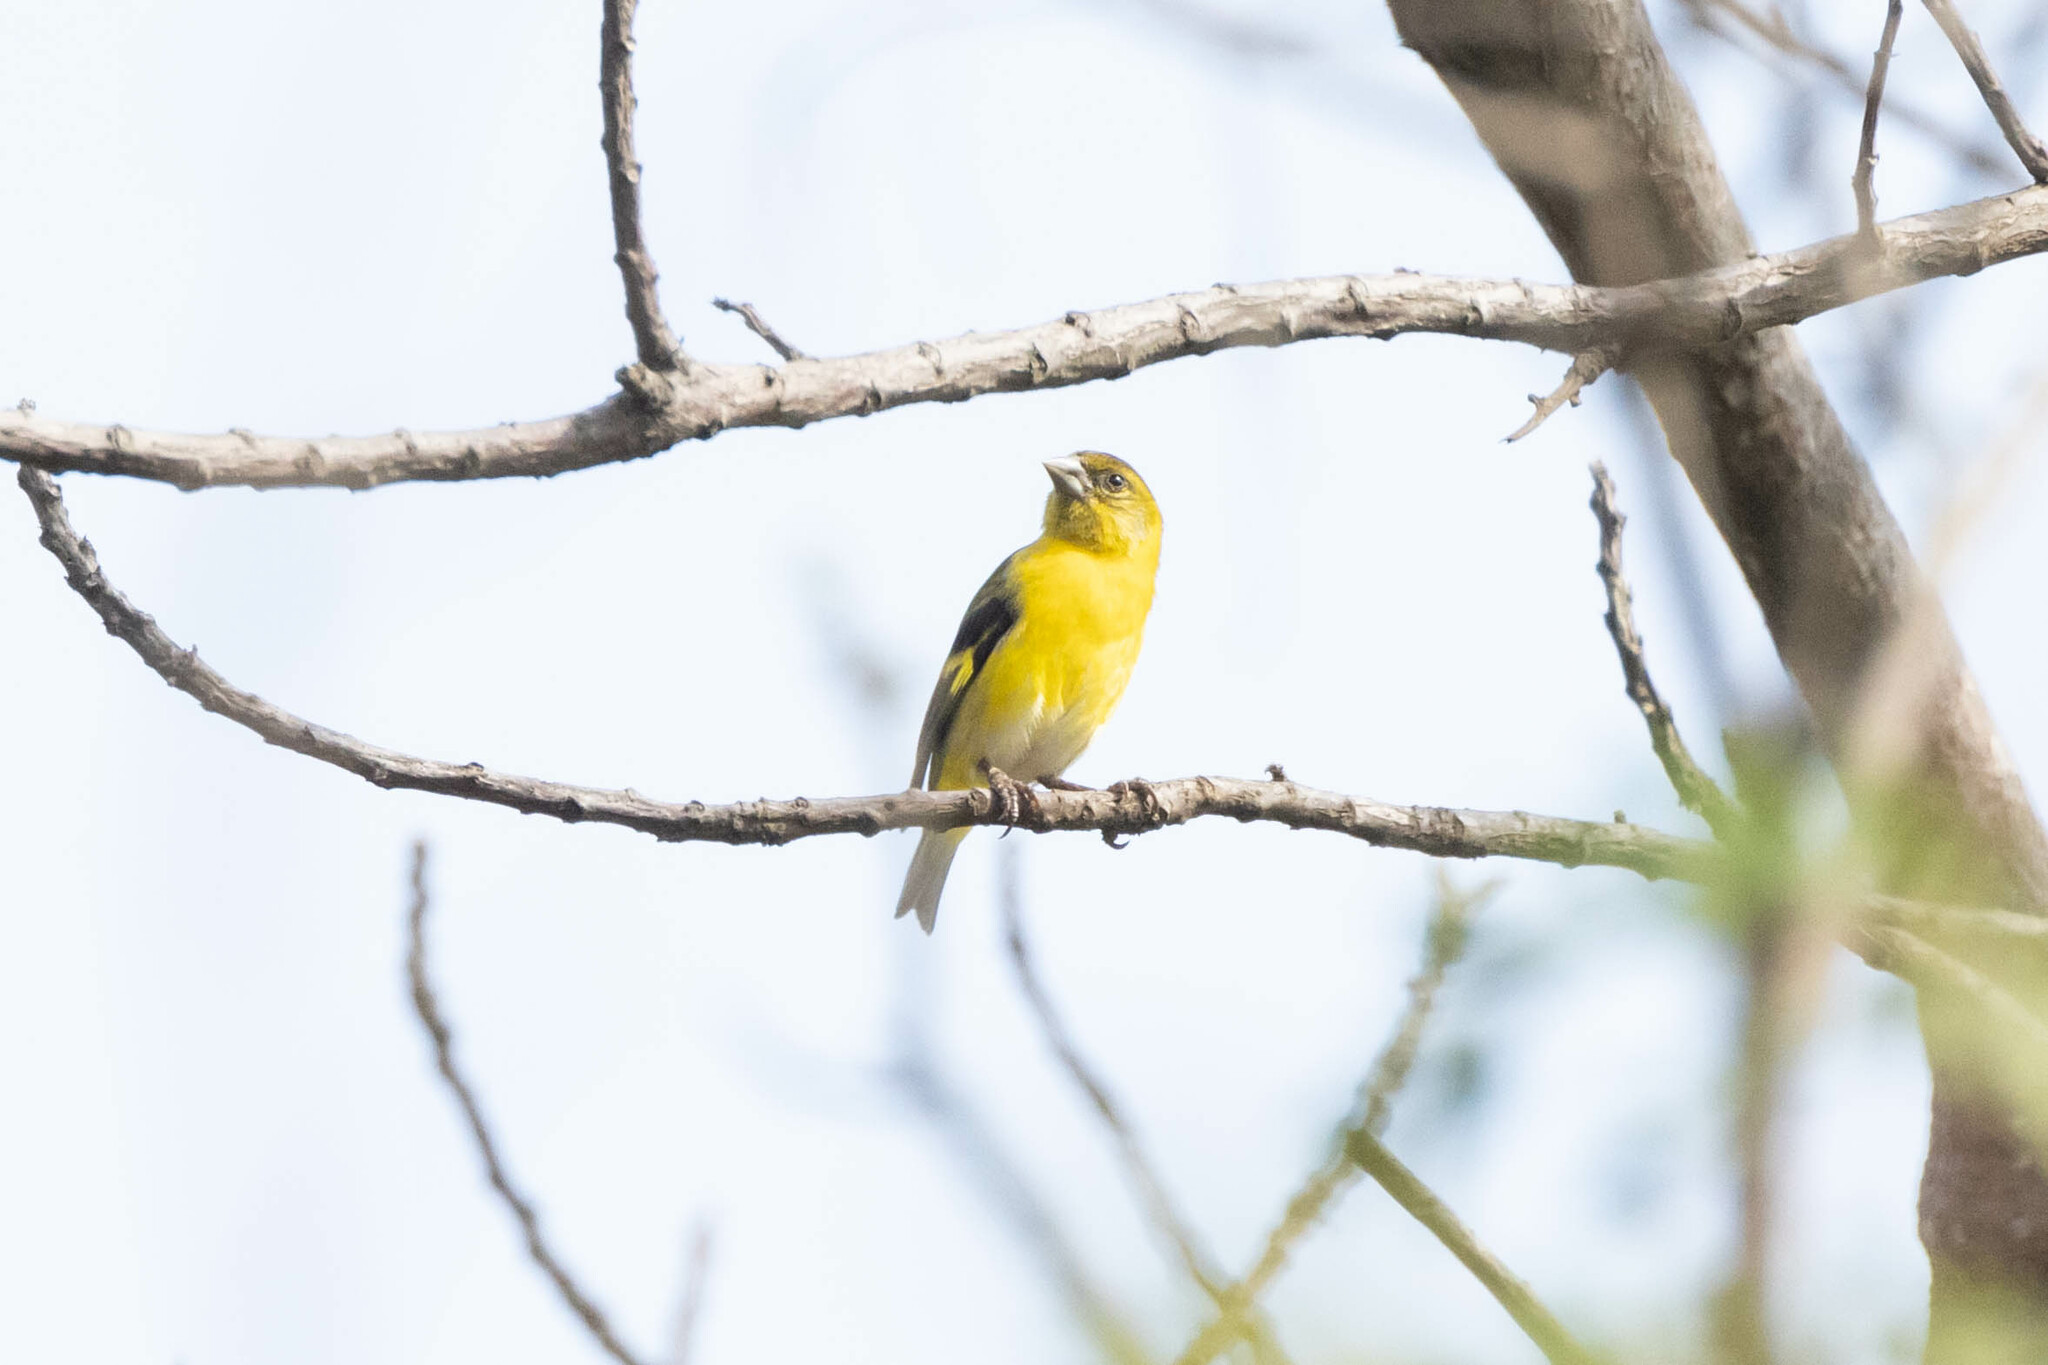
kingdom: Animalia
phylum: Chordata
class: Aves
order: Passeriformes
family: Fringillidae
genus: Spinus
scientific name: Spinus siemiradzkii
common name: Saffron siskin
